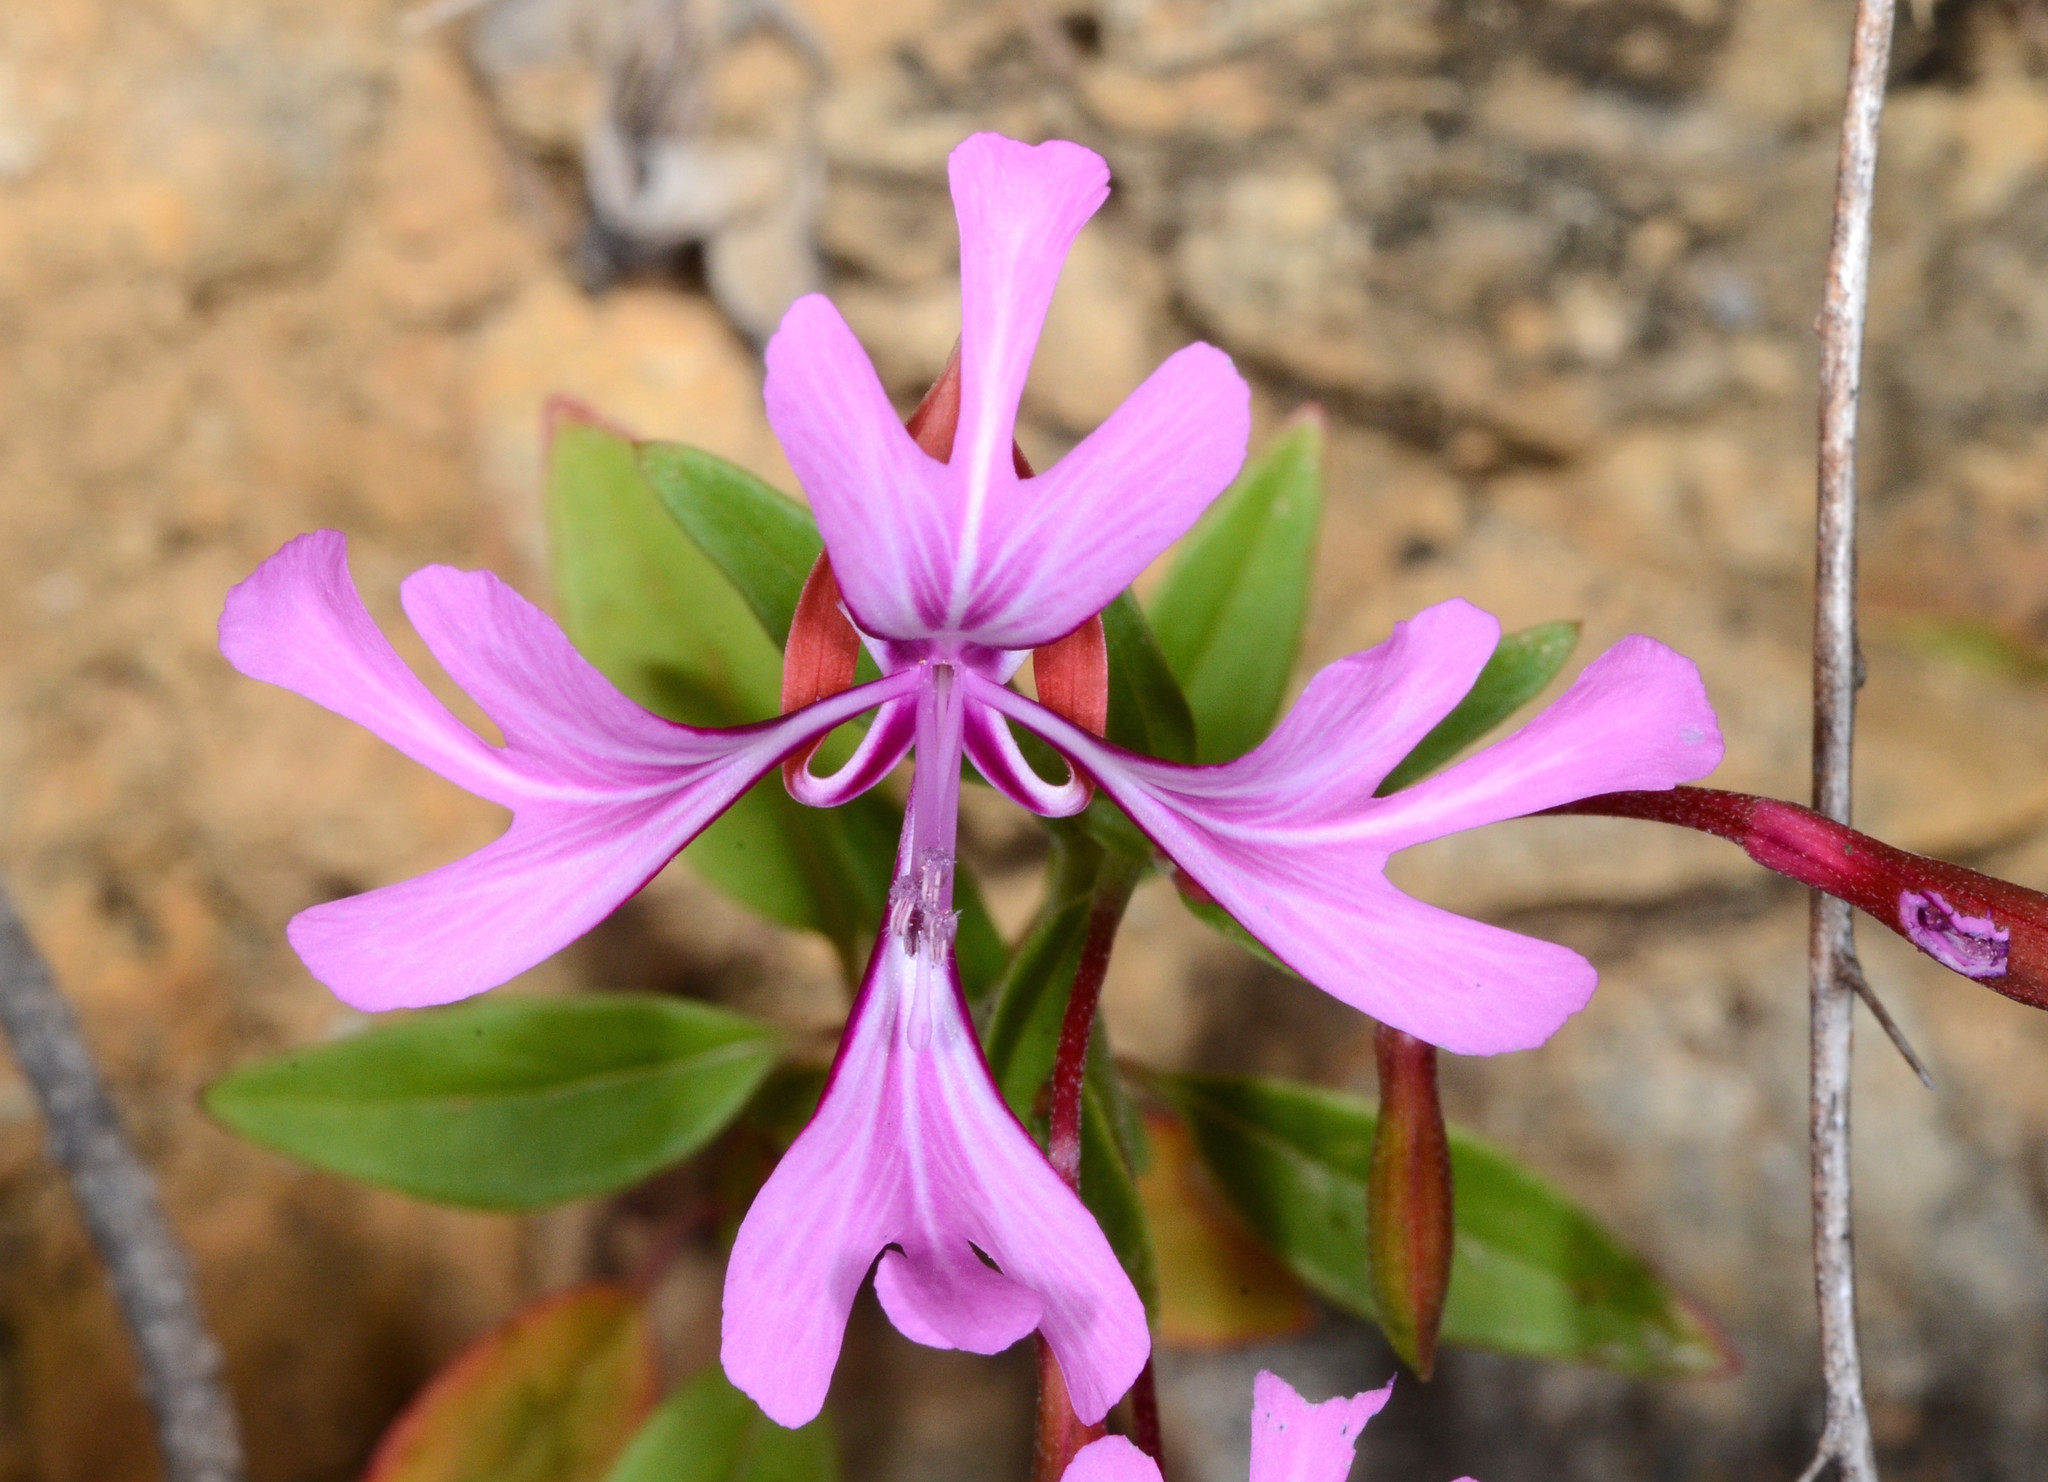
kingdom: Plantae
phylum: Tracheophyta
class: Magnoliopsida
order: Myrtales
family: Onagraceae
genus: Clarkia
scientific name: Clarkia concinna
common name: Red-ribbons
